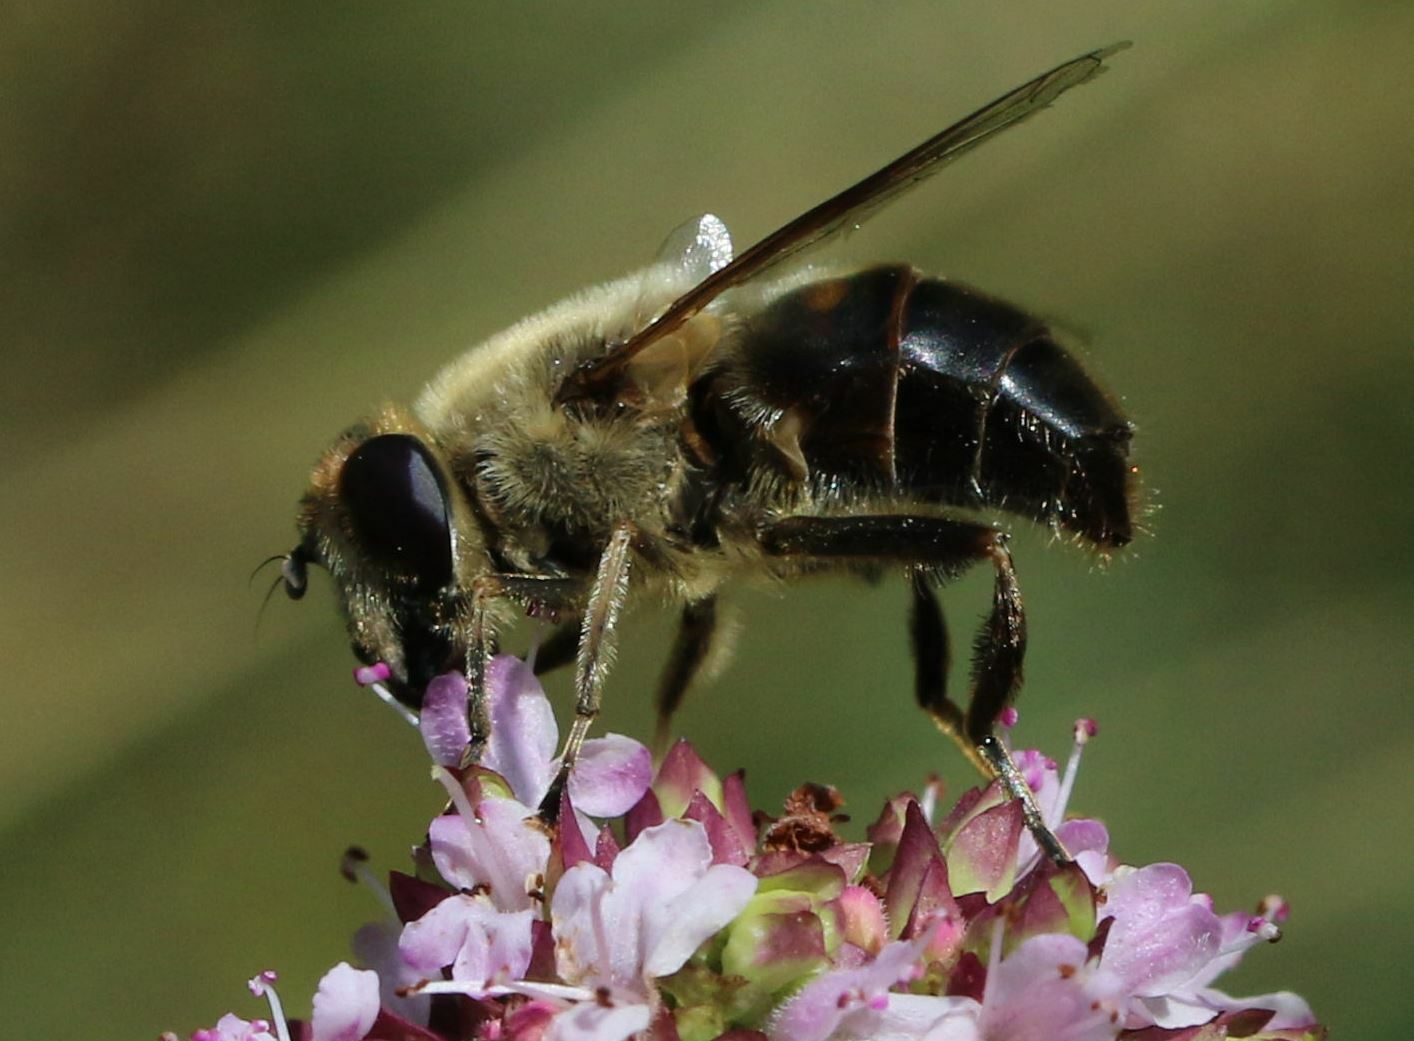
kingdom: Animalia
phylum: Arthropoda
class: Insecta
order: Diptera
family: Syrphidae
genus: Eristalis
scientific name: Eristalis tenax
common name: Drone fly
